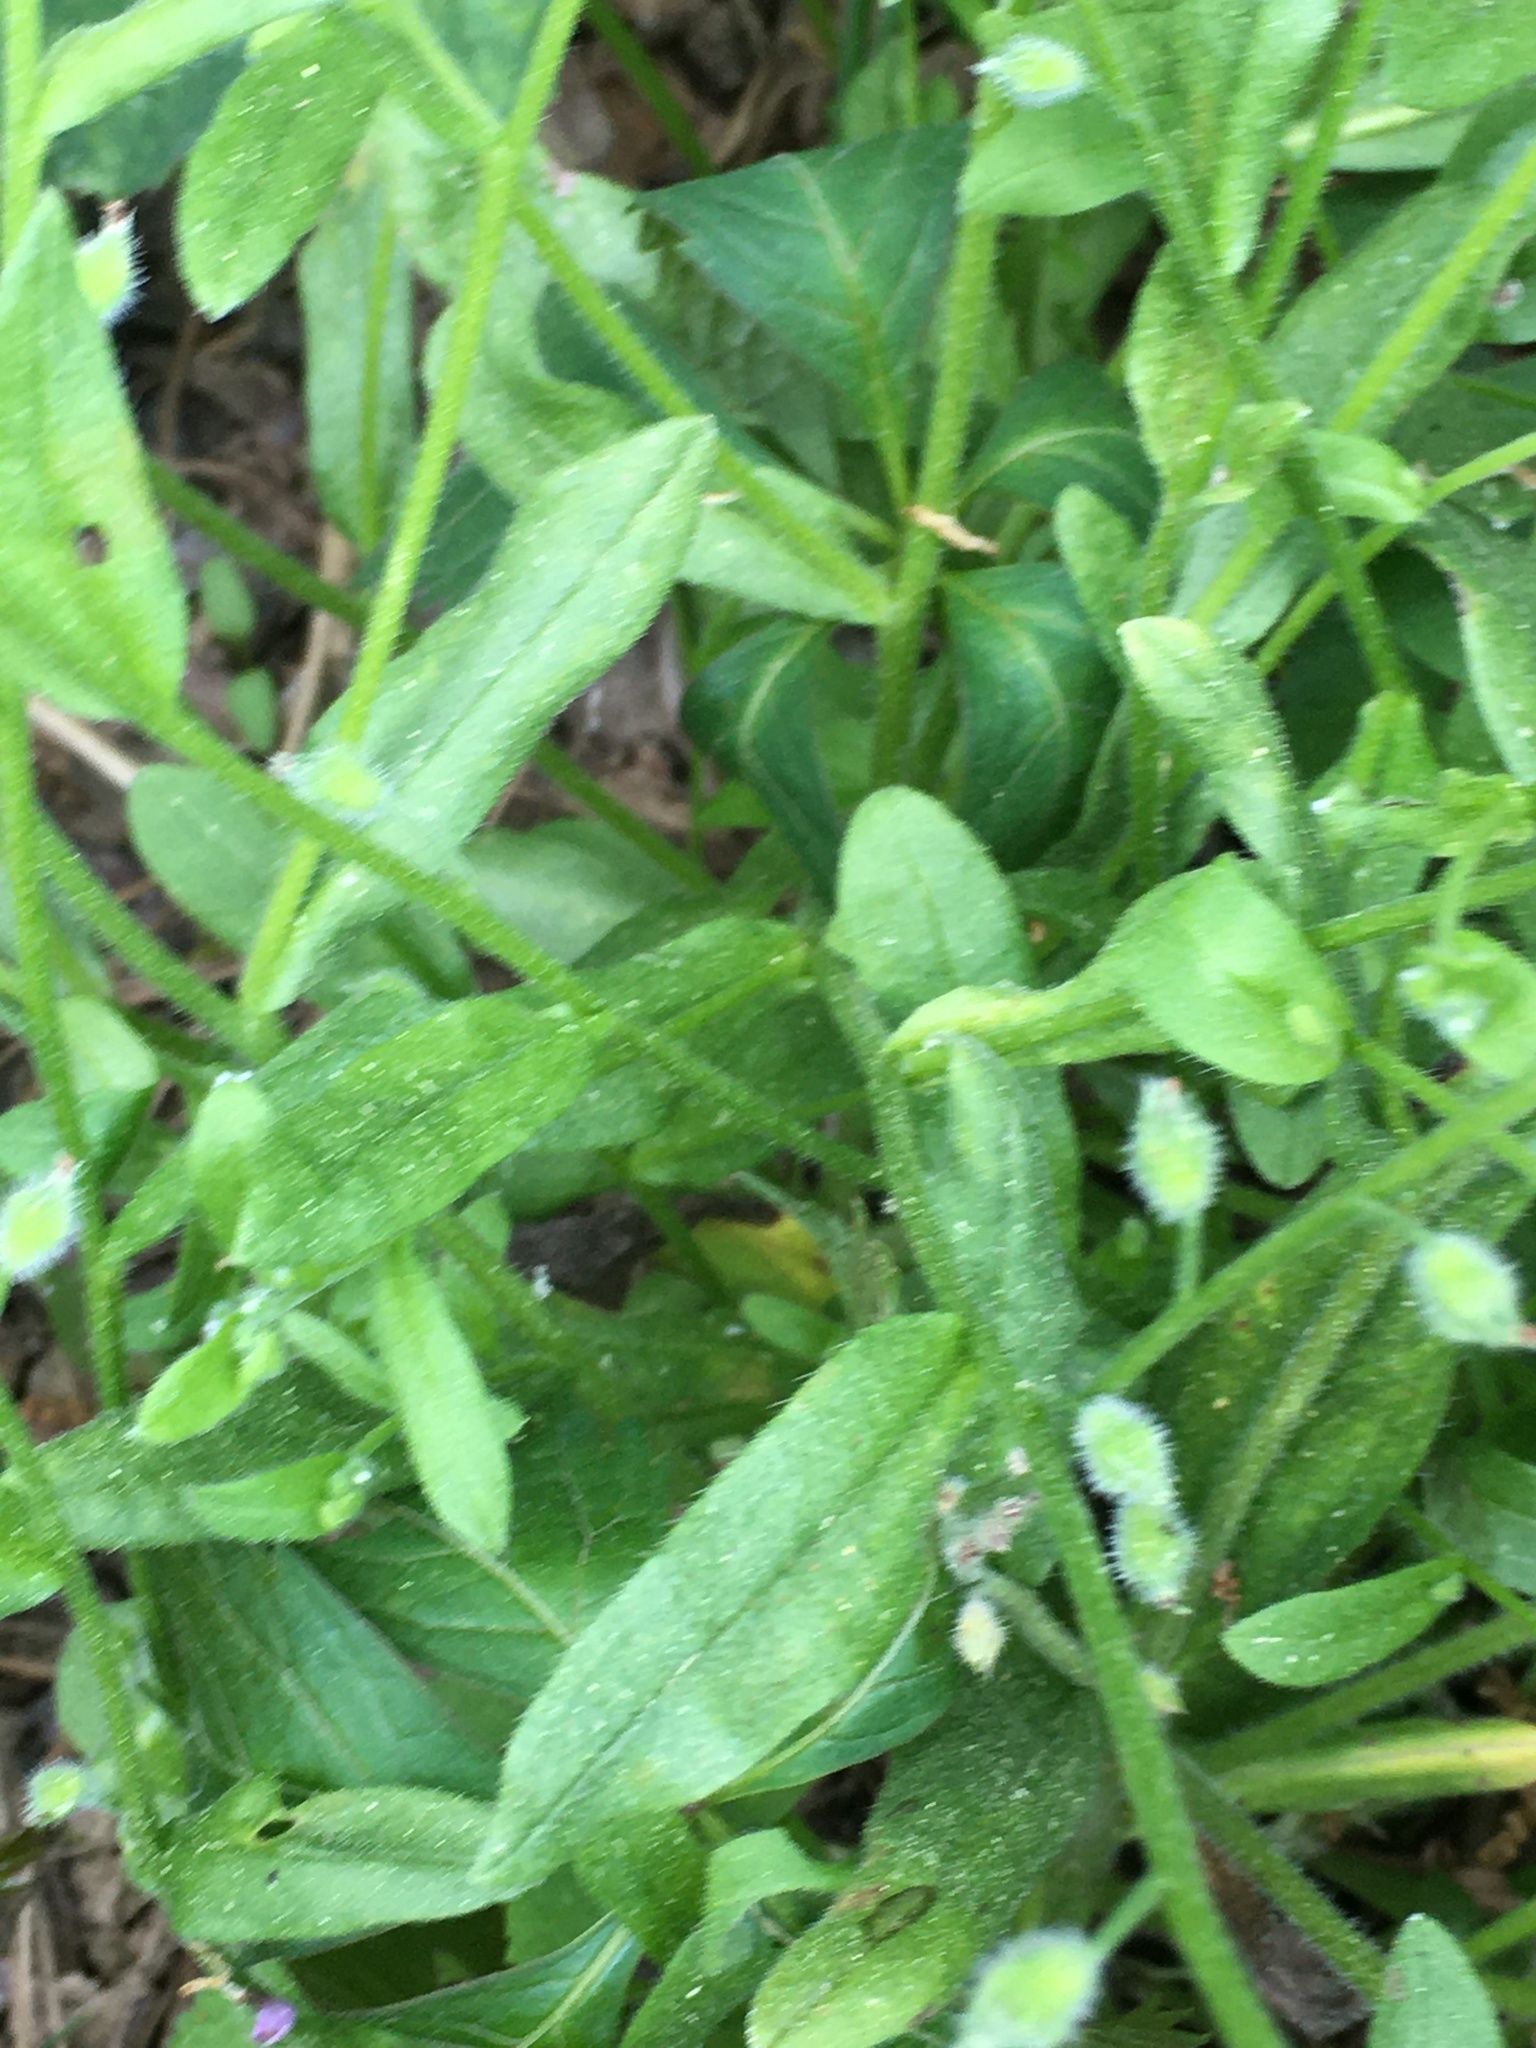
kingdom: Plantae
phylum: Tracheophyta
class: Magnoliopsida
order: Boraginales
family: Boraginaceae
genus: Myosotis
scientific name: Myosotis macrosperma
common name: Large-seed forget-me-not
